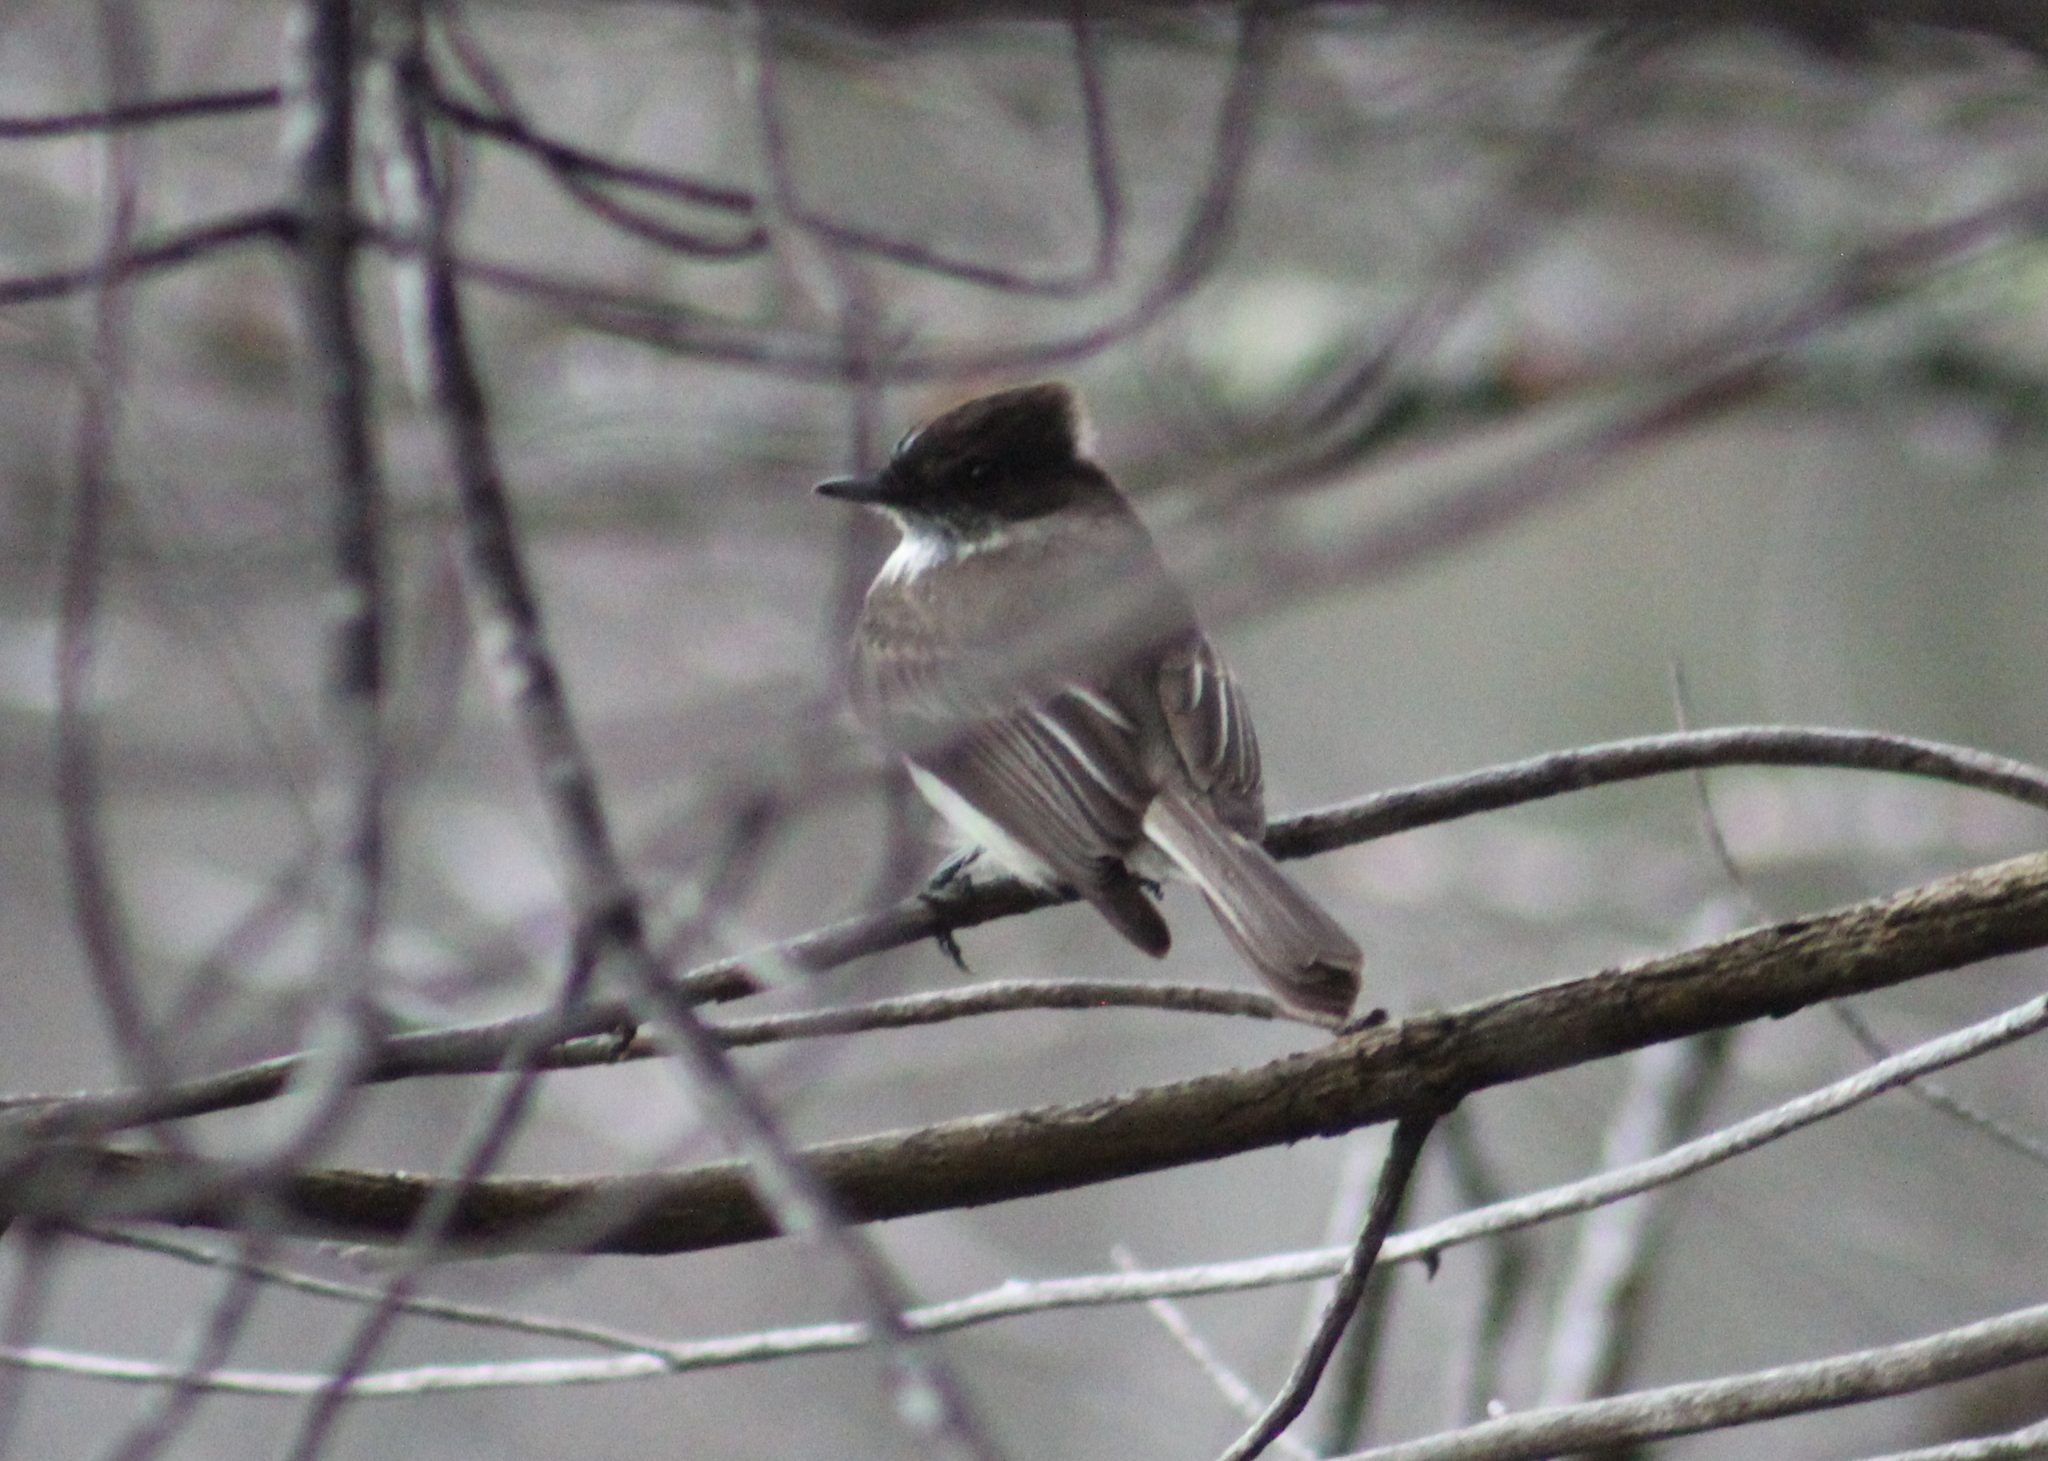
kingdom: Animalia
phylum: Chordata
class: Aves
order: Passeriformes
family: Tyrannidae
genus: Sayornis
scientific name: Sayornis phoebe
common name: Eastern phoebe
